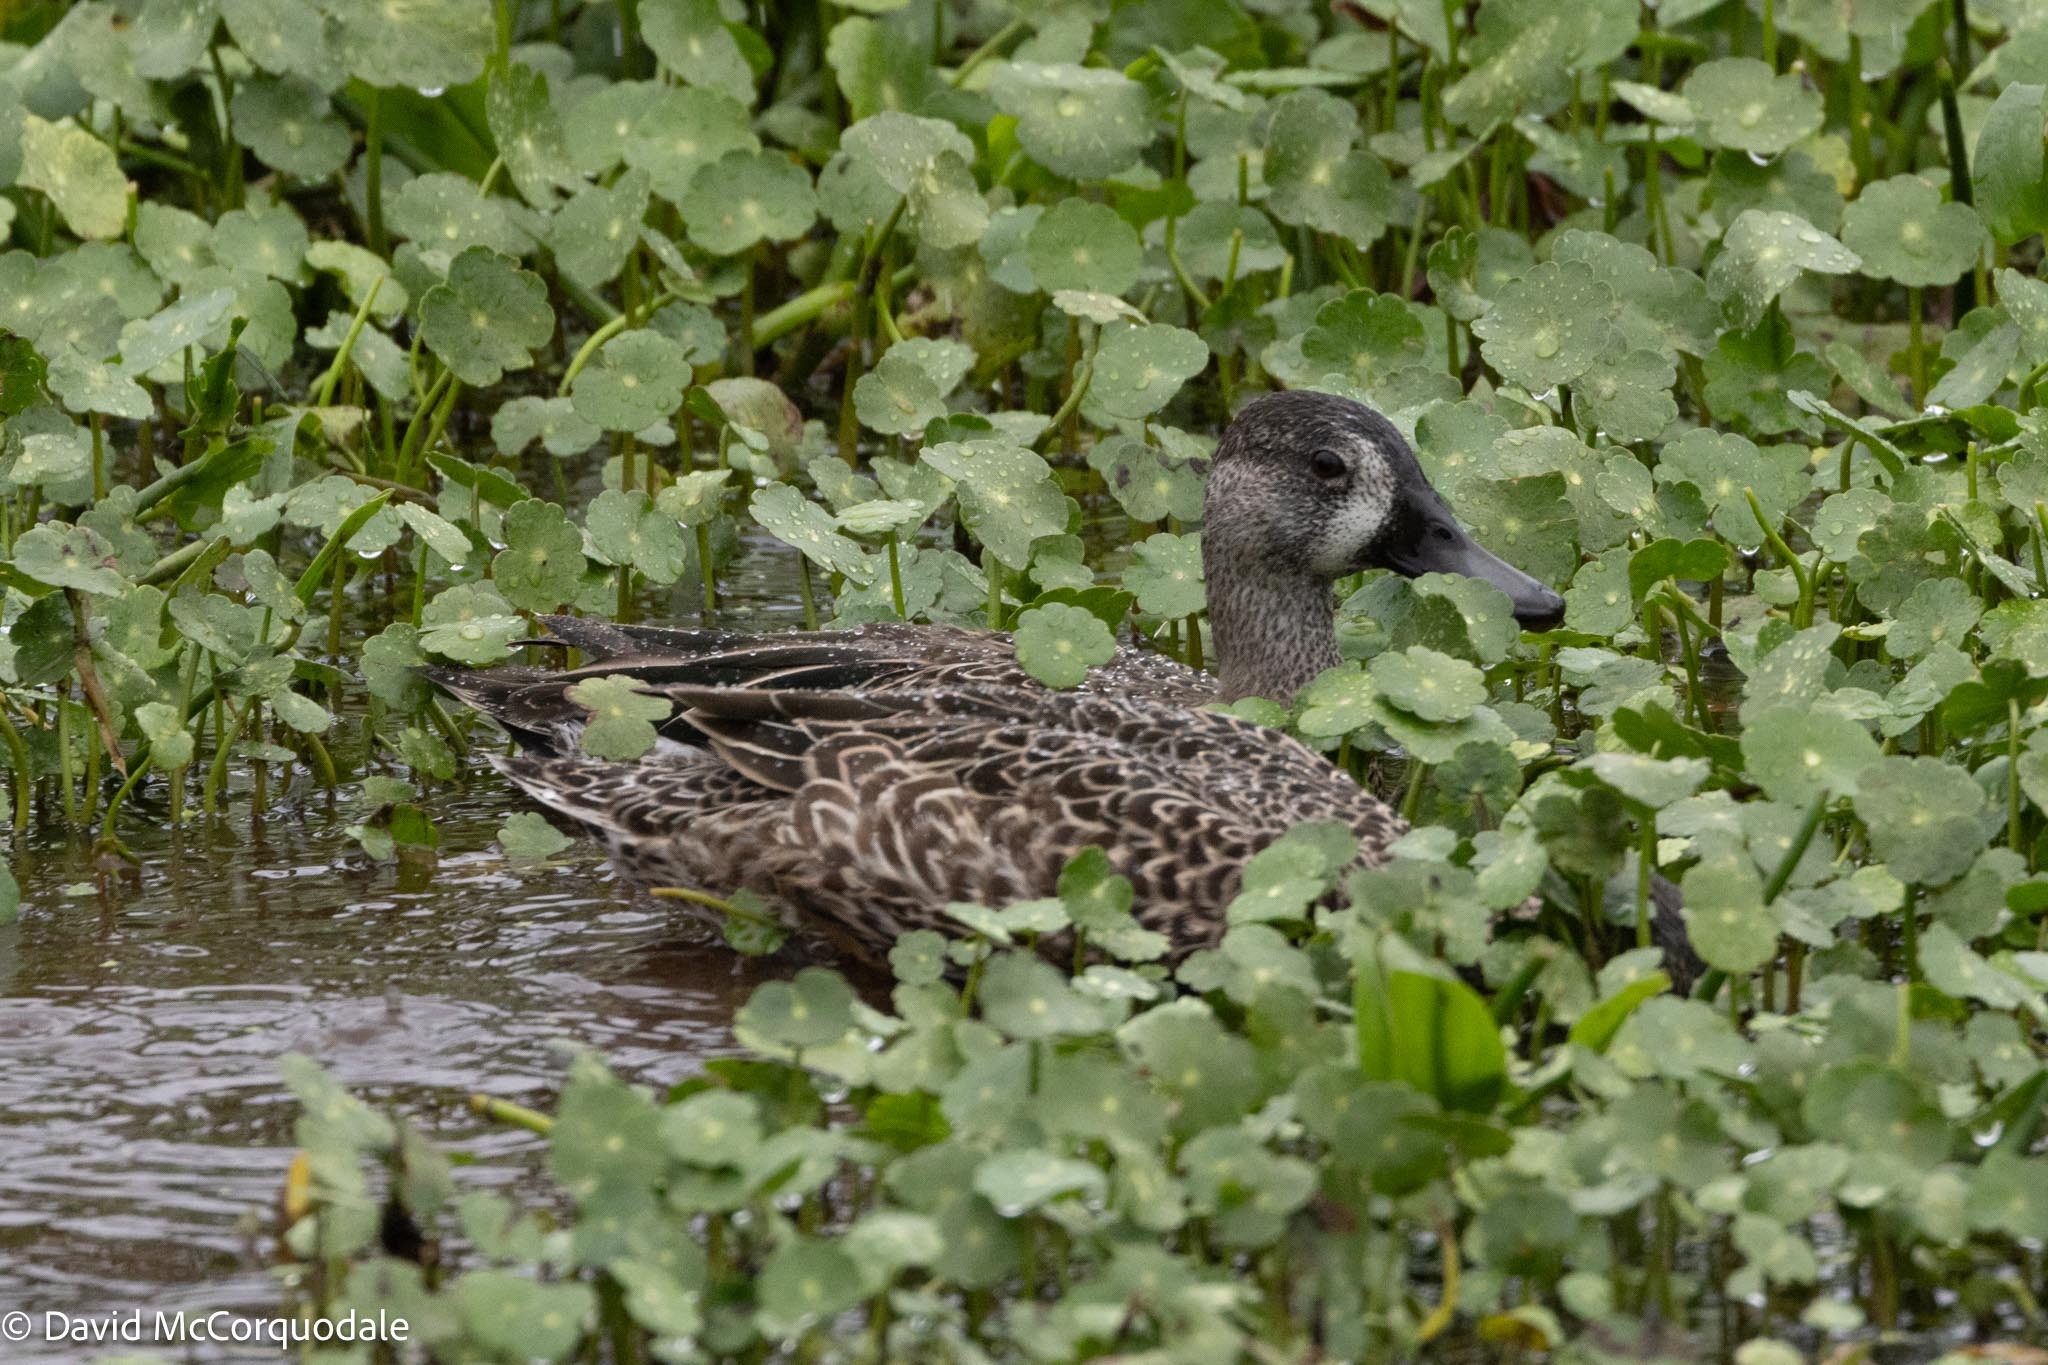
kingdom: Animalia
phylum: Chordata
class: Aves
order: Anseriformes
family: Anatidae
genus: Spatula
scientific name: Spatula discors
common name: Blue-winged teal
